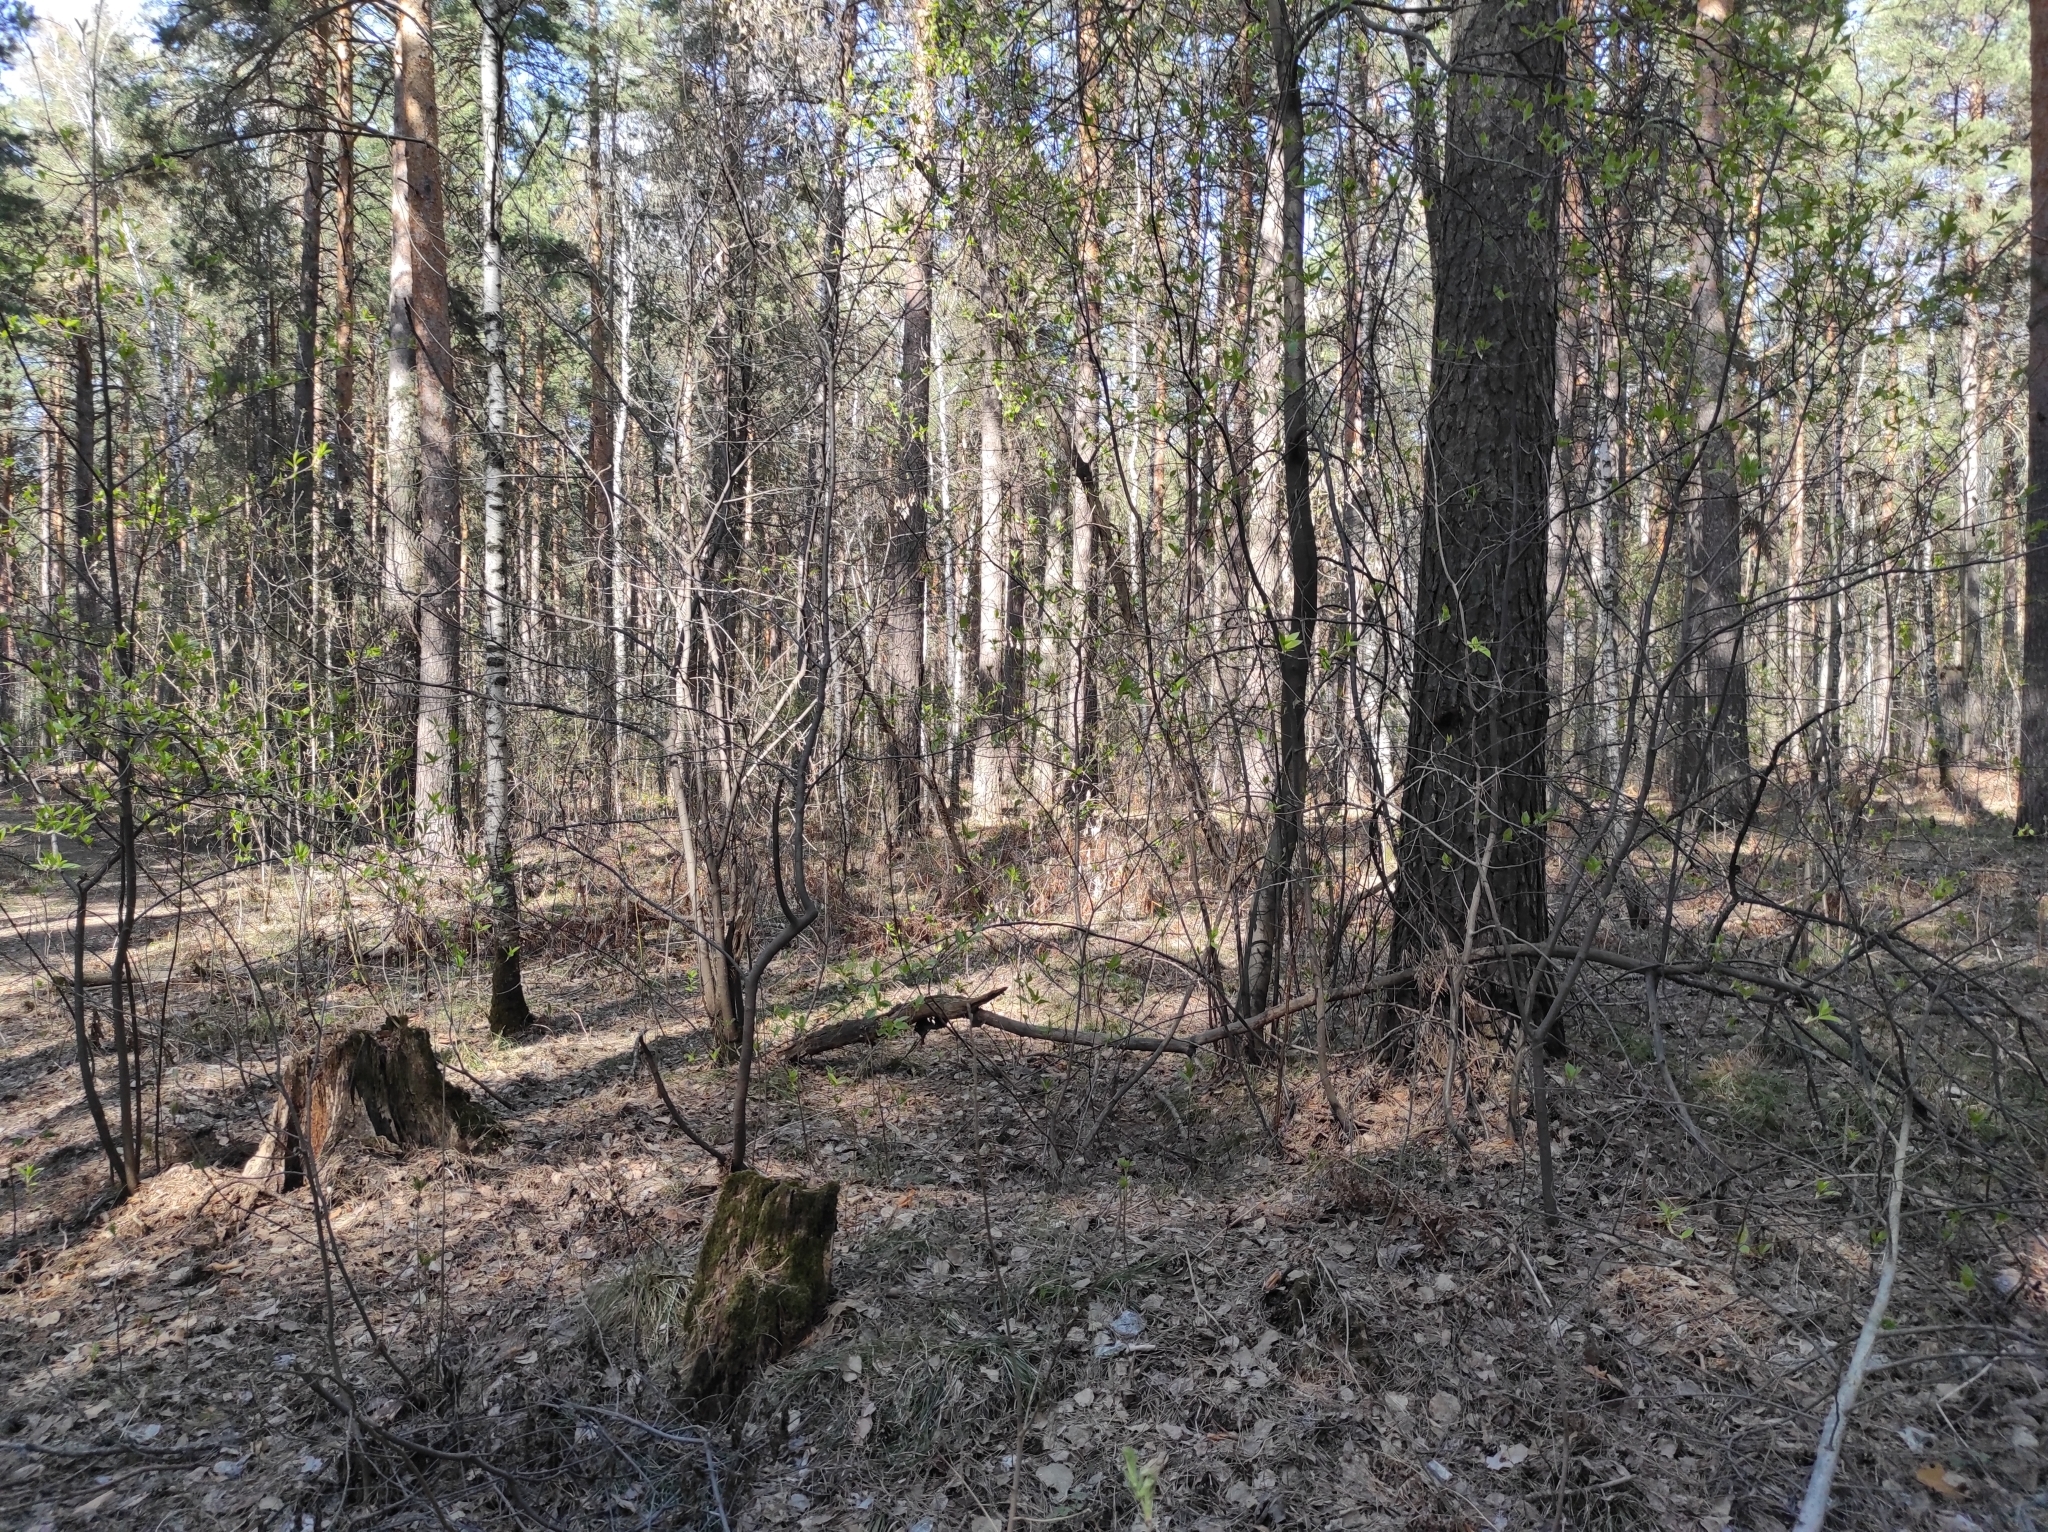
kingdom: Plantae
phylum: Tracheophyta
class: Pinopsida
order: Pinales
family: Pinaceae
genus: Pinus
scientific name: Pinus sylvestris
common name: Scots pine
